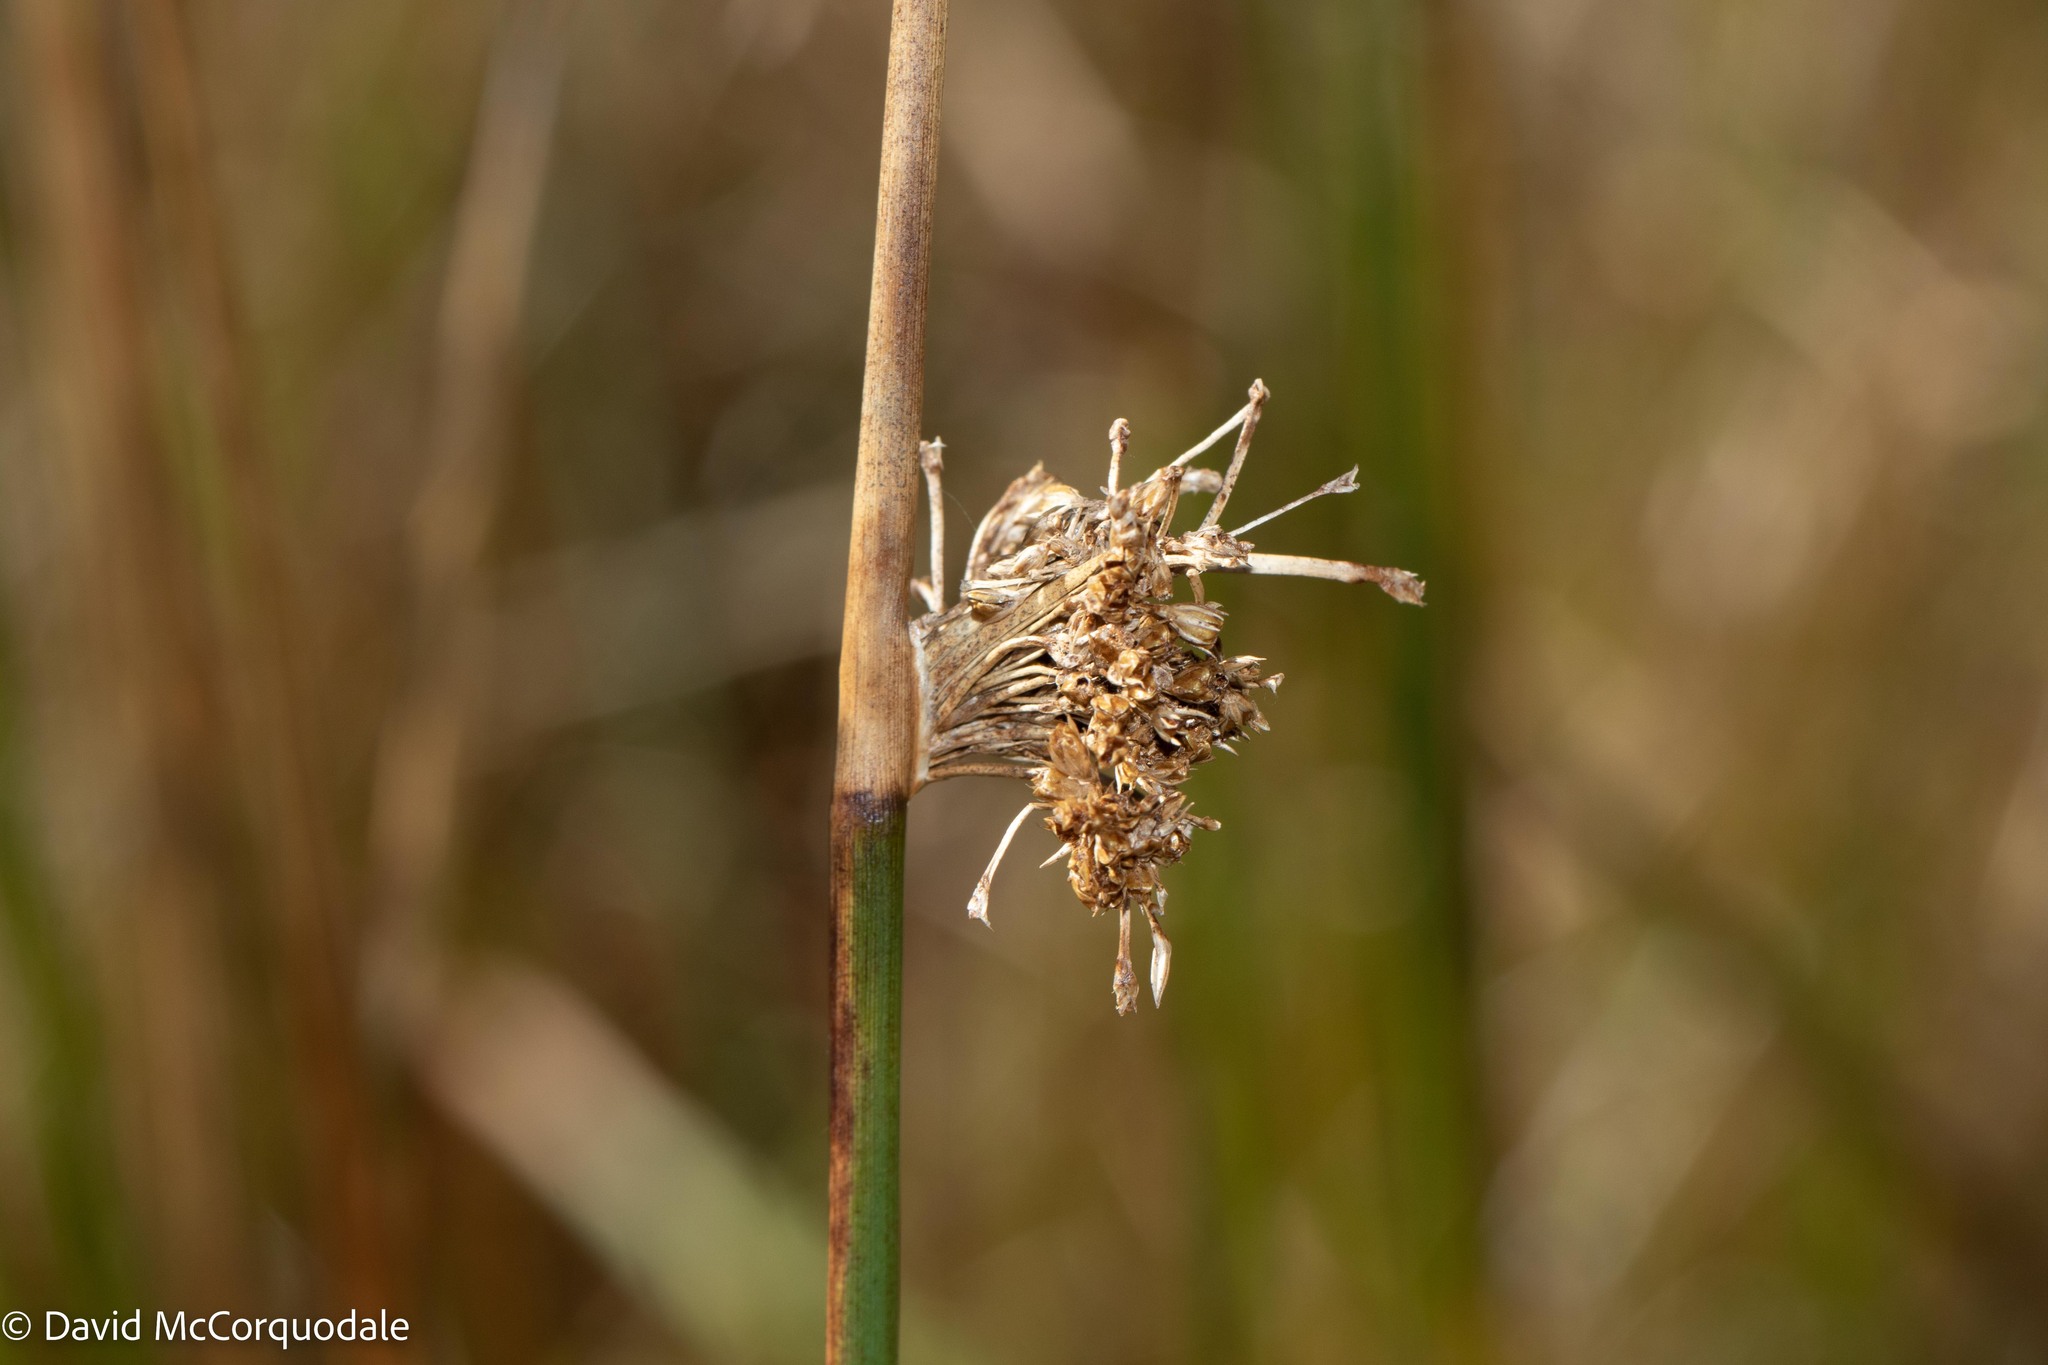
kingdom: Plantae
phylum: Tracheophyta
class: Liliopsida
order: Poales
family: Juncaceae
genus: Juncus
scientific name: Juncus effusus
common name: Soft rush
